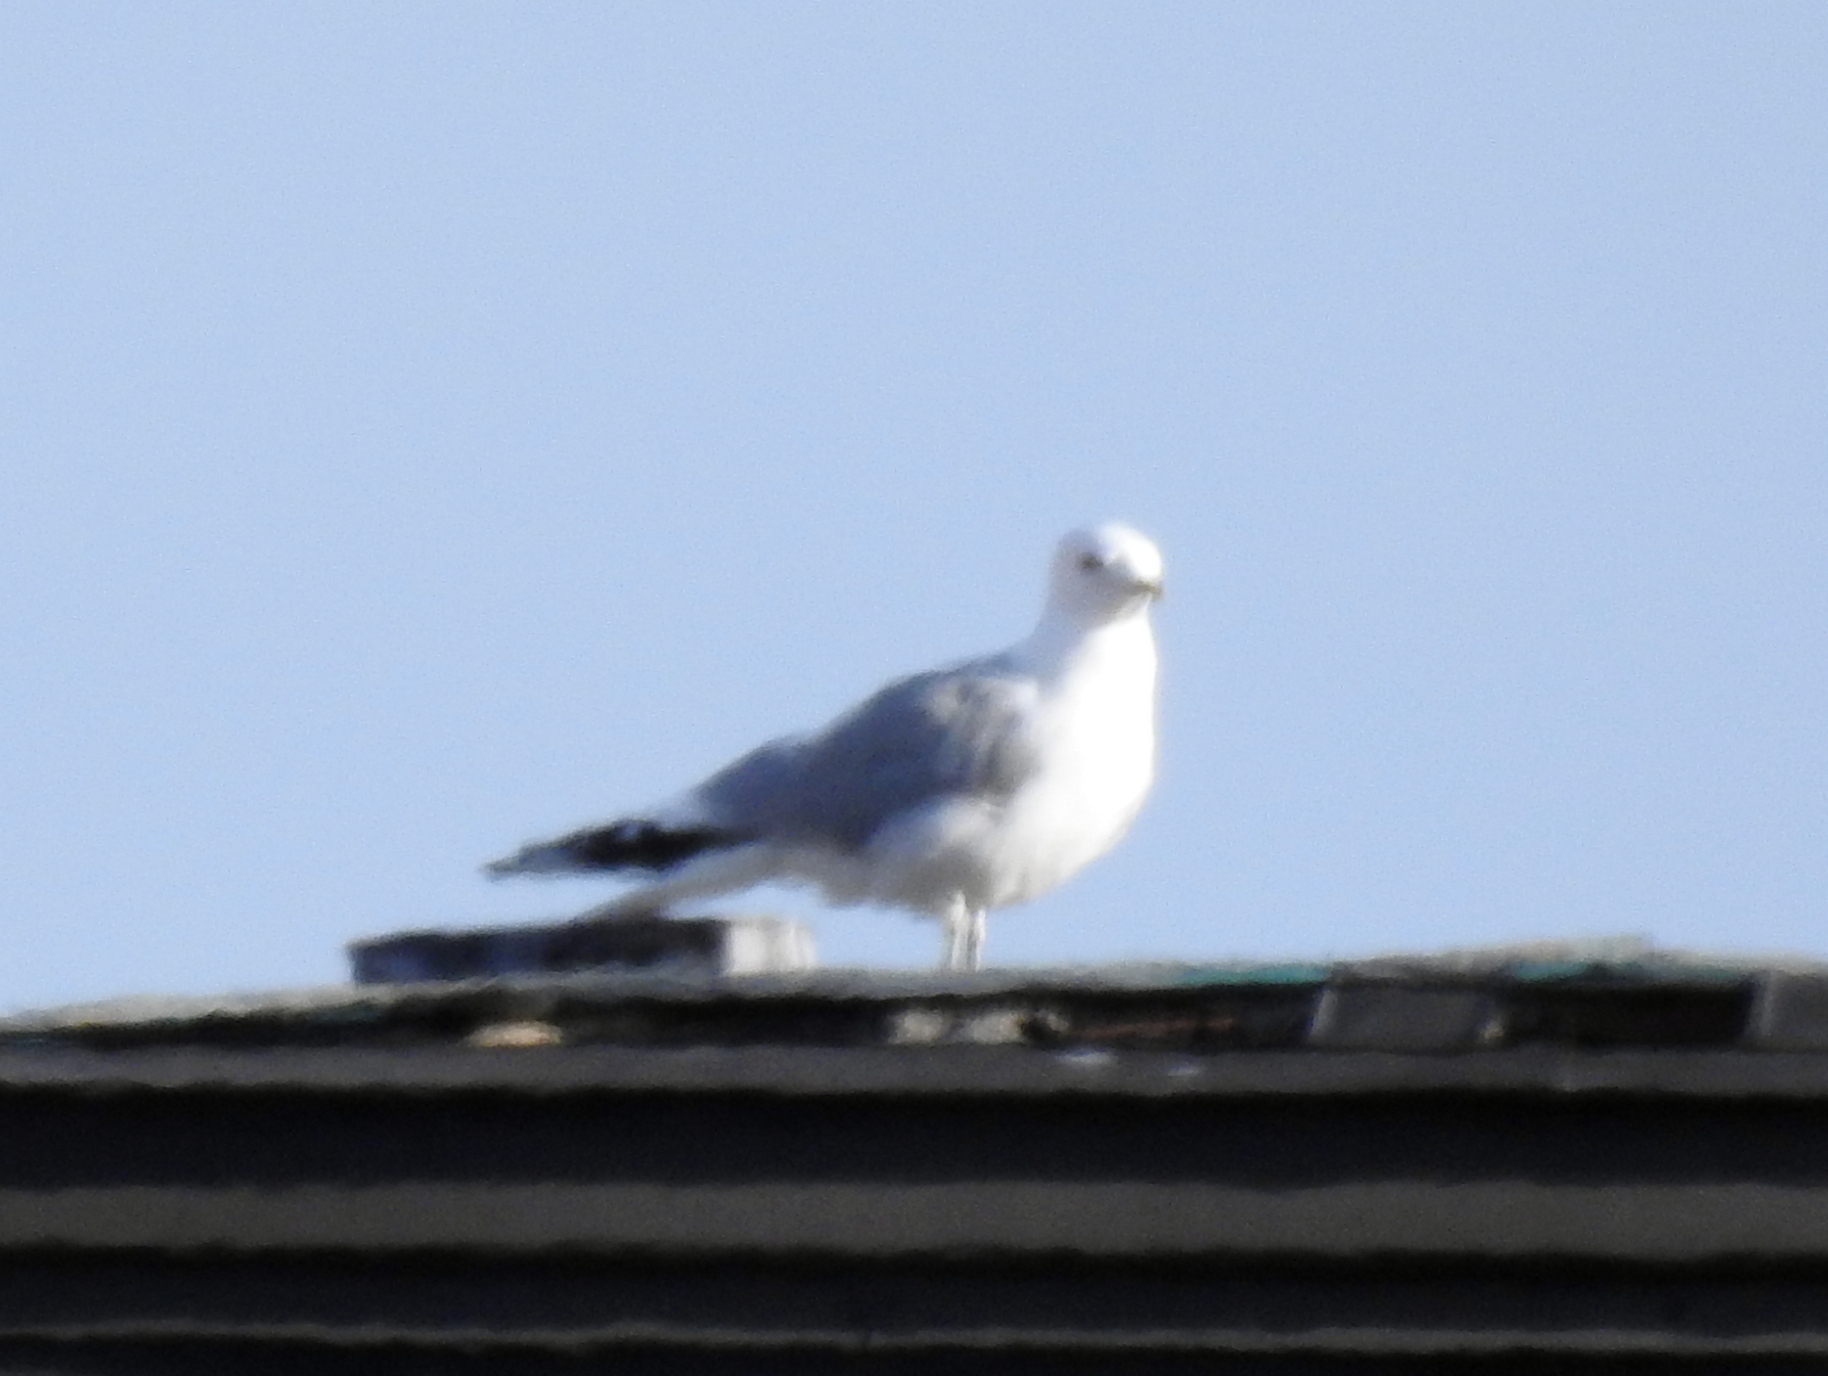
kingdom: Animalia
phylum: Chordata
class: Aves
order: Charadriiformes
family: Laridae
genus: Larus
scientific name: Larus canus
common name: Mew gull
